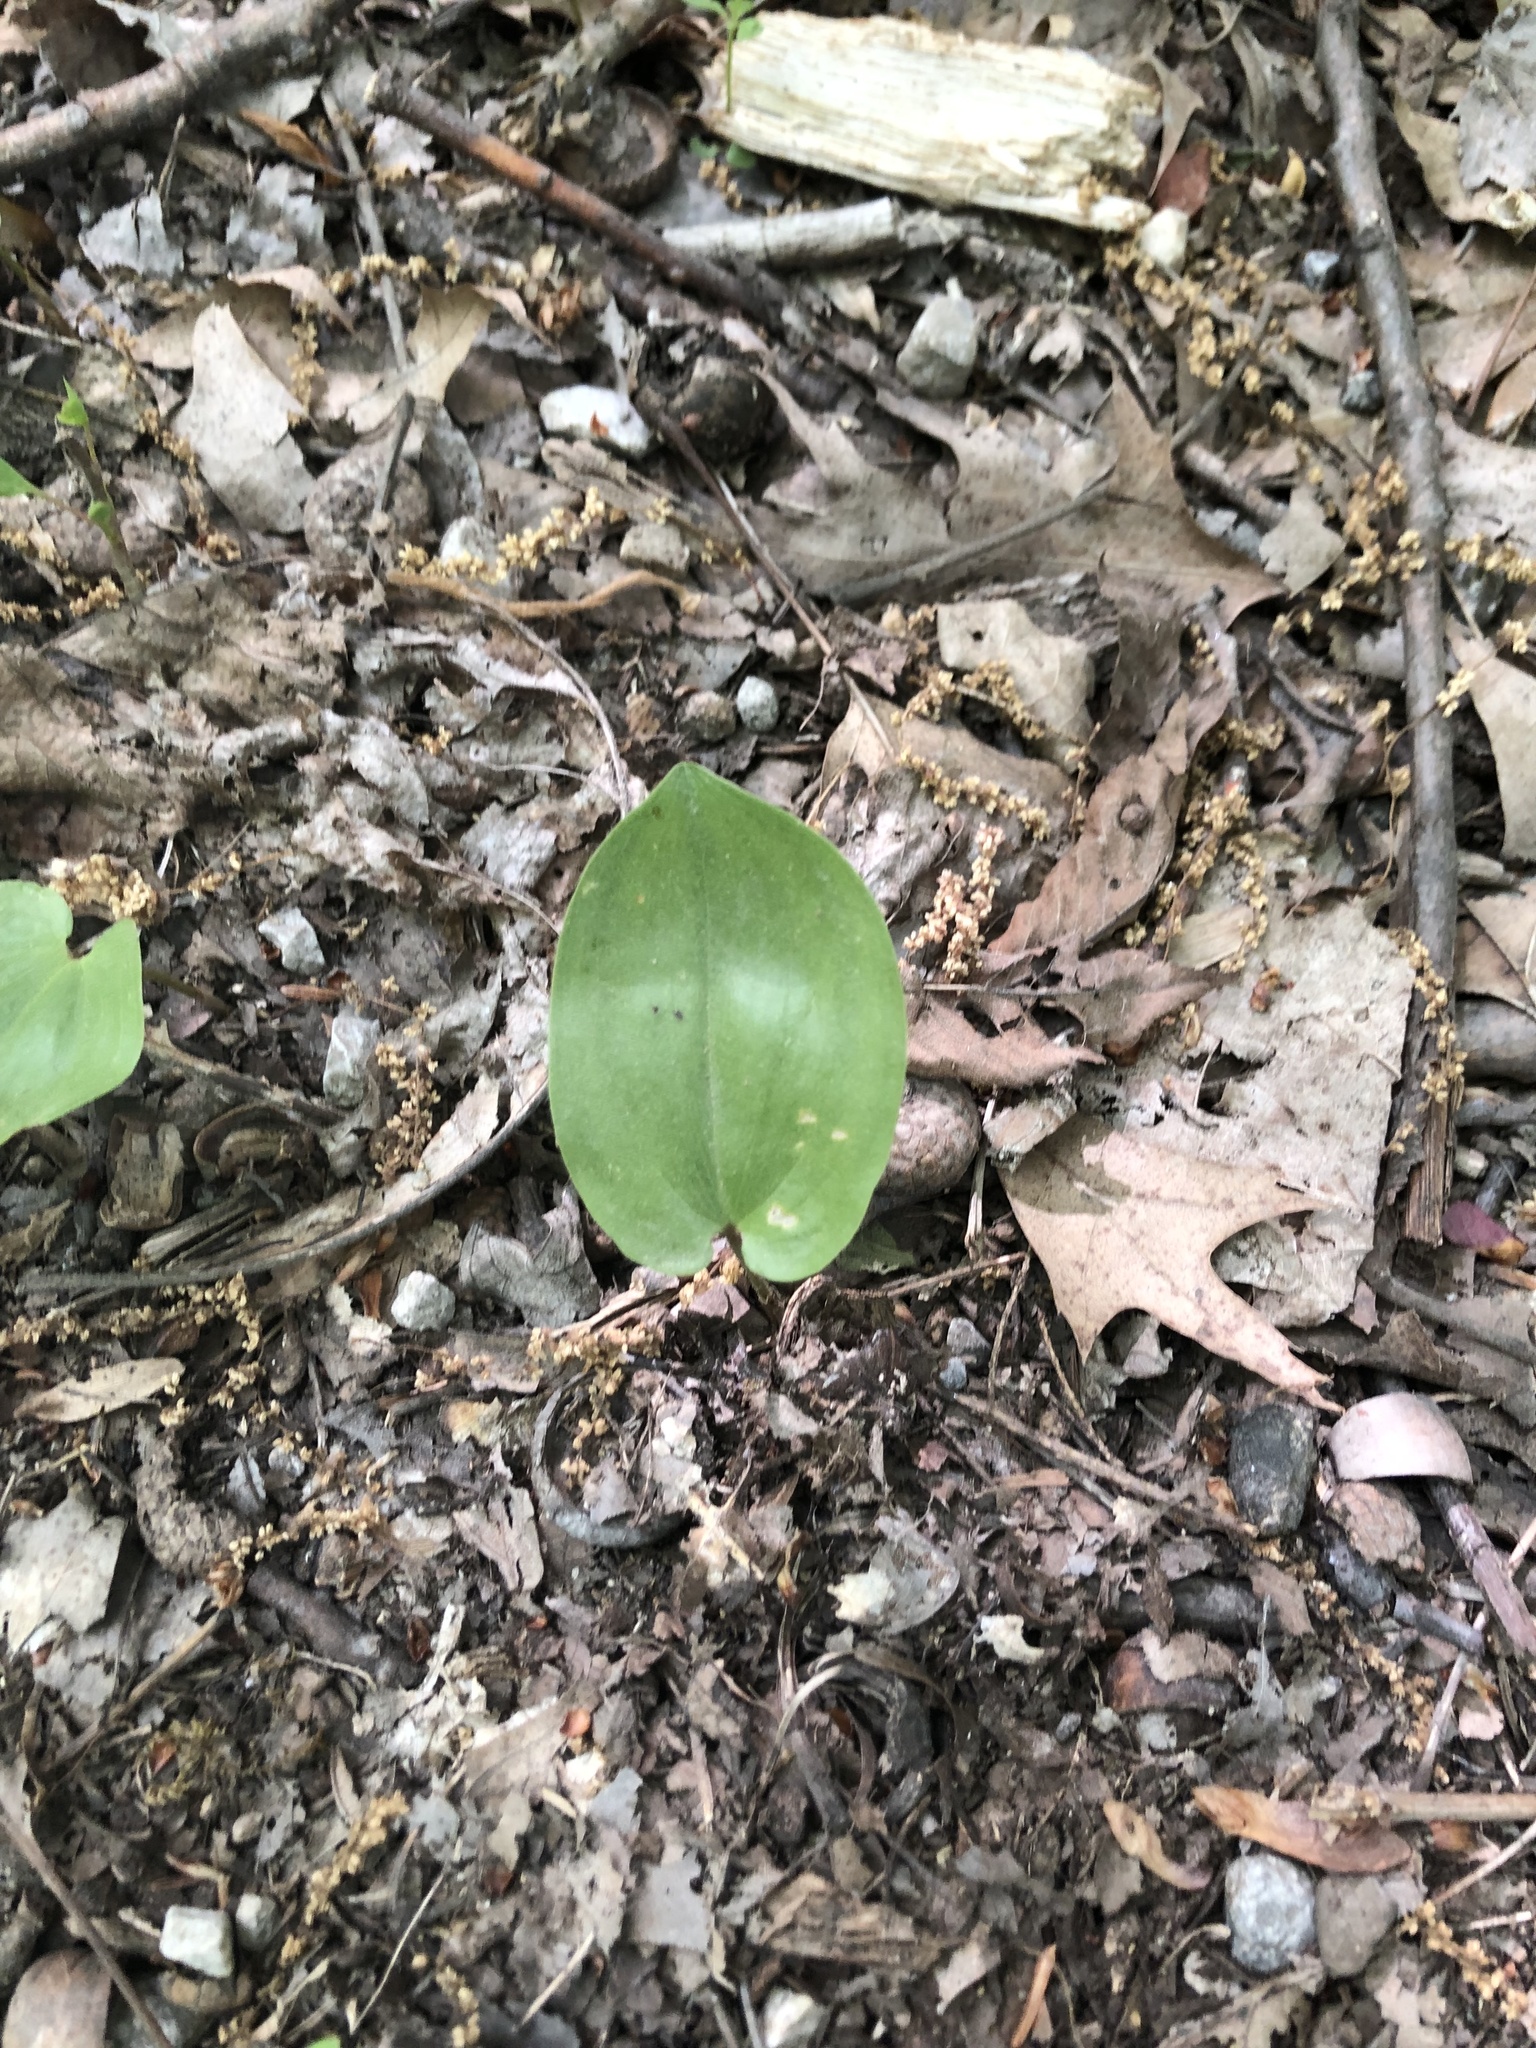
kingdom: Plantae
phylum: Tracheophyta
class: Liliopsida
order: Asparagales
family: Asparagaceae
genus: Maianthemum
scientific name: Maianthemum canadense
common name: False lily-of-the-valley
